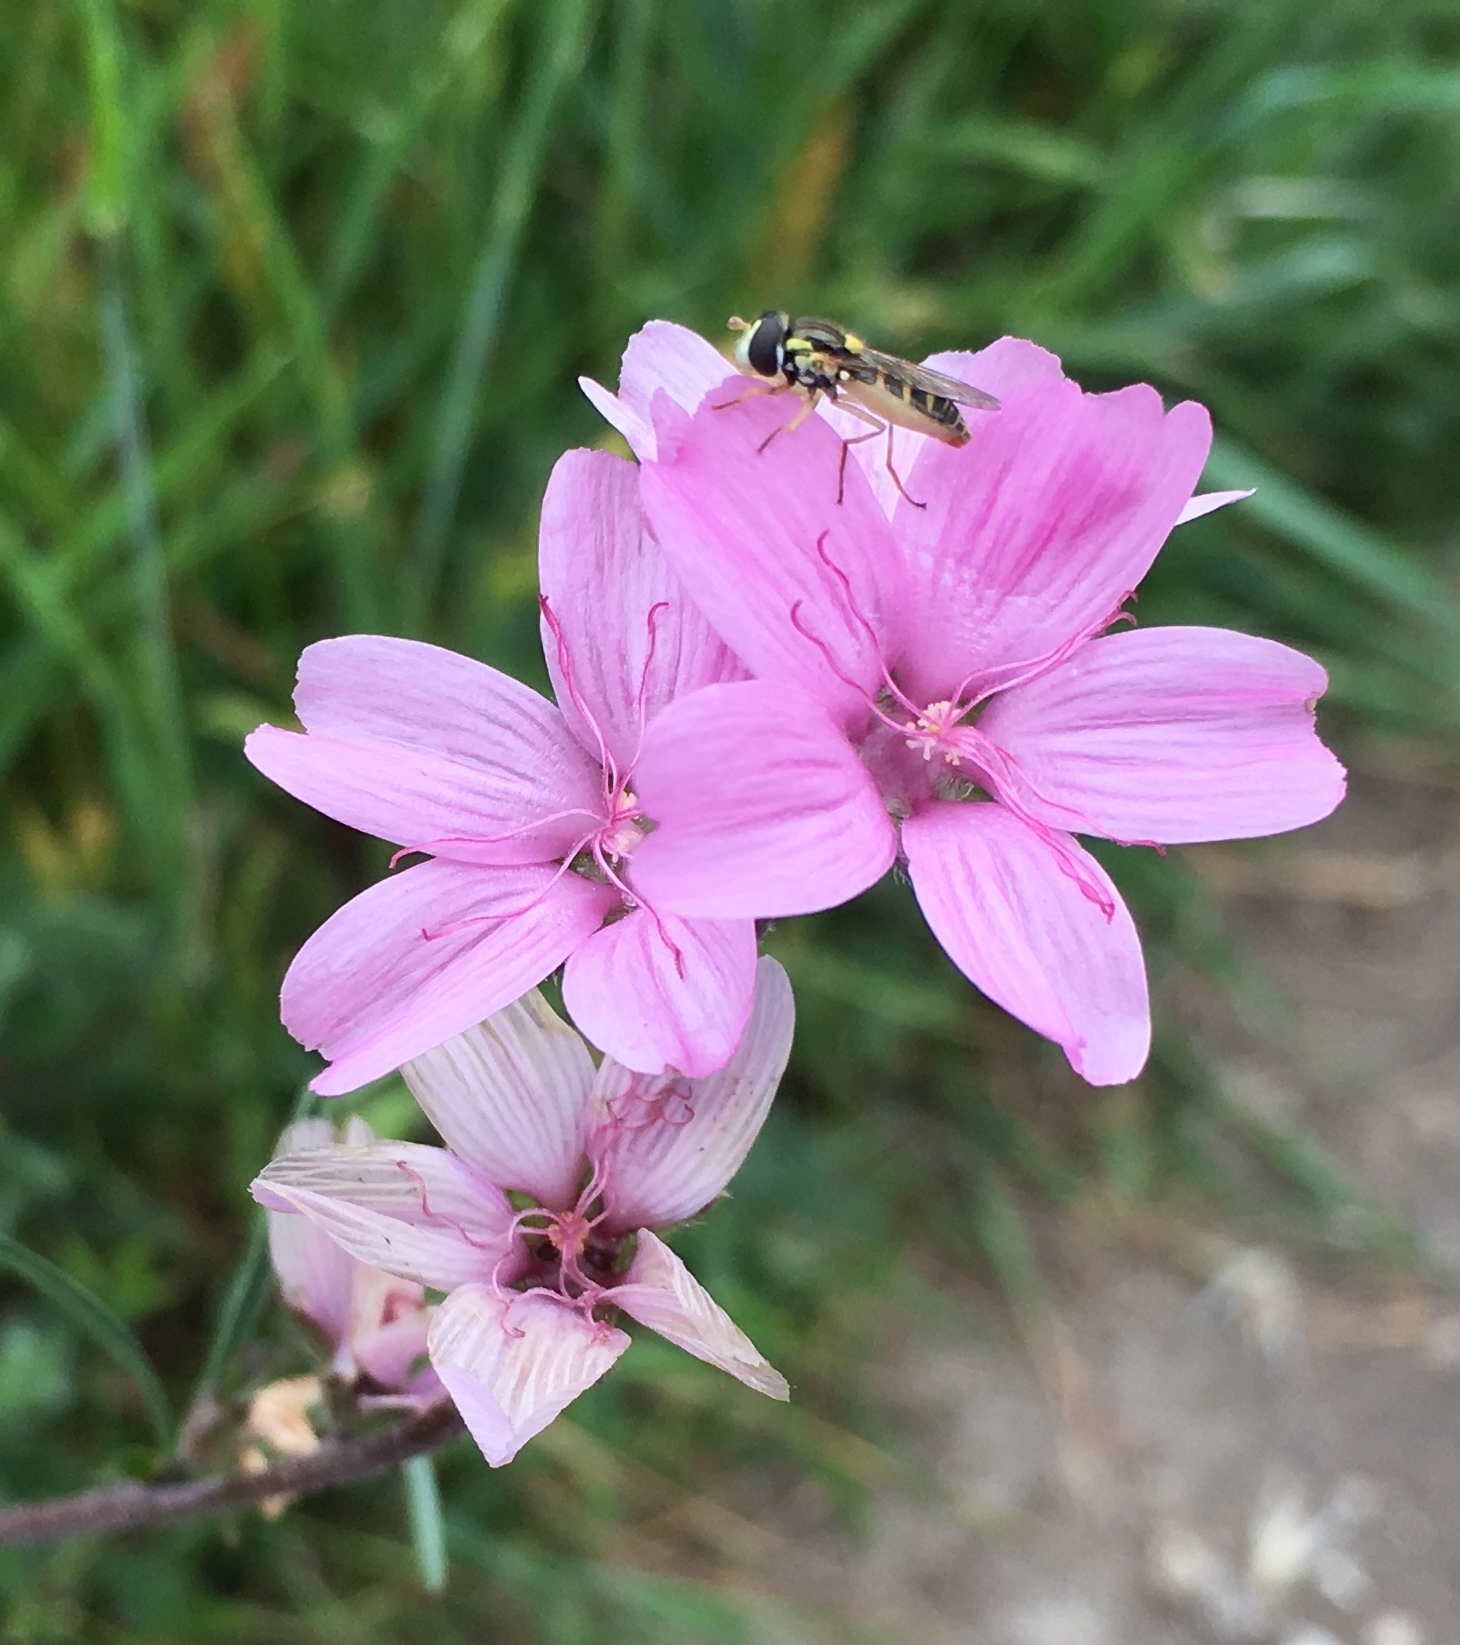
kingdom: Plantae
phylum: Tracheophyta
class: Magnoliopsida
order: Malvales
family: Malvaceae
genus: Sidalcea
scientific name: Sidalcea malviflora
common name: Greek mallow
